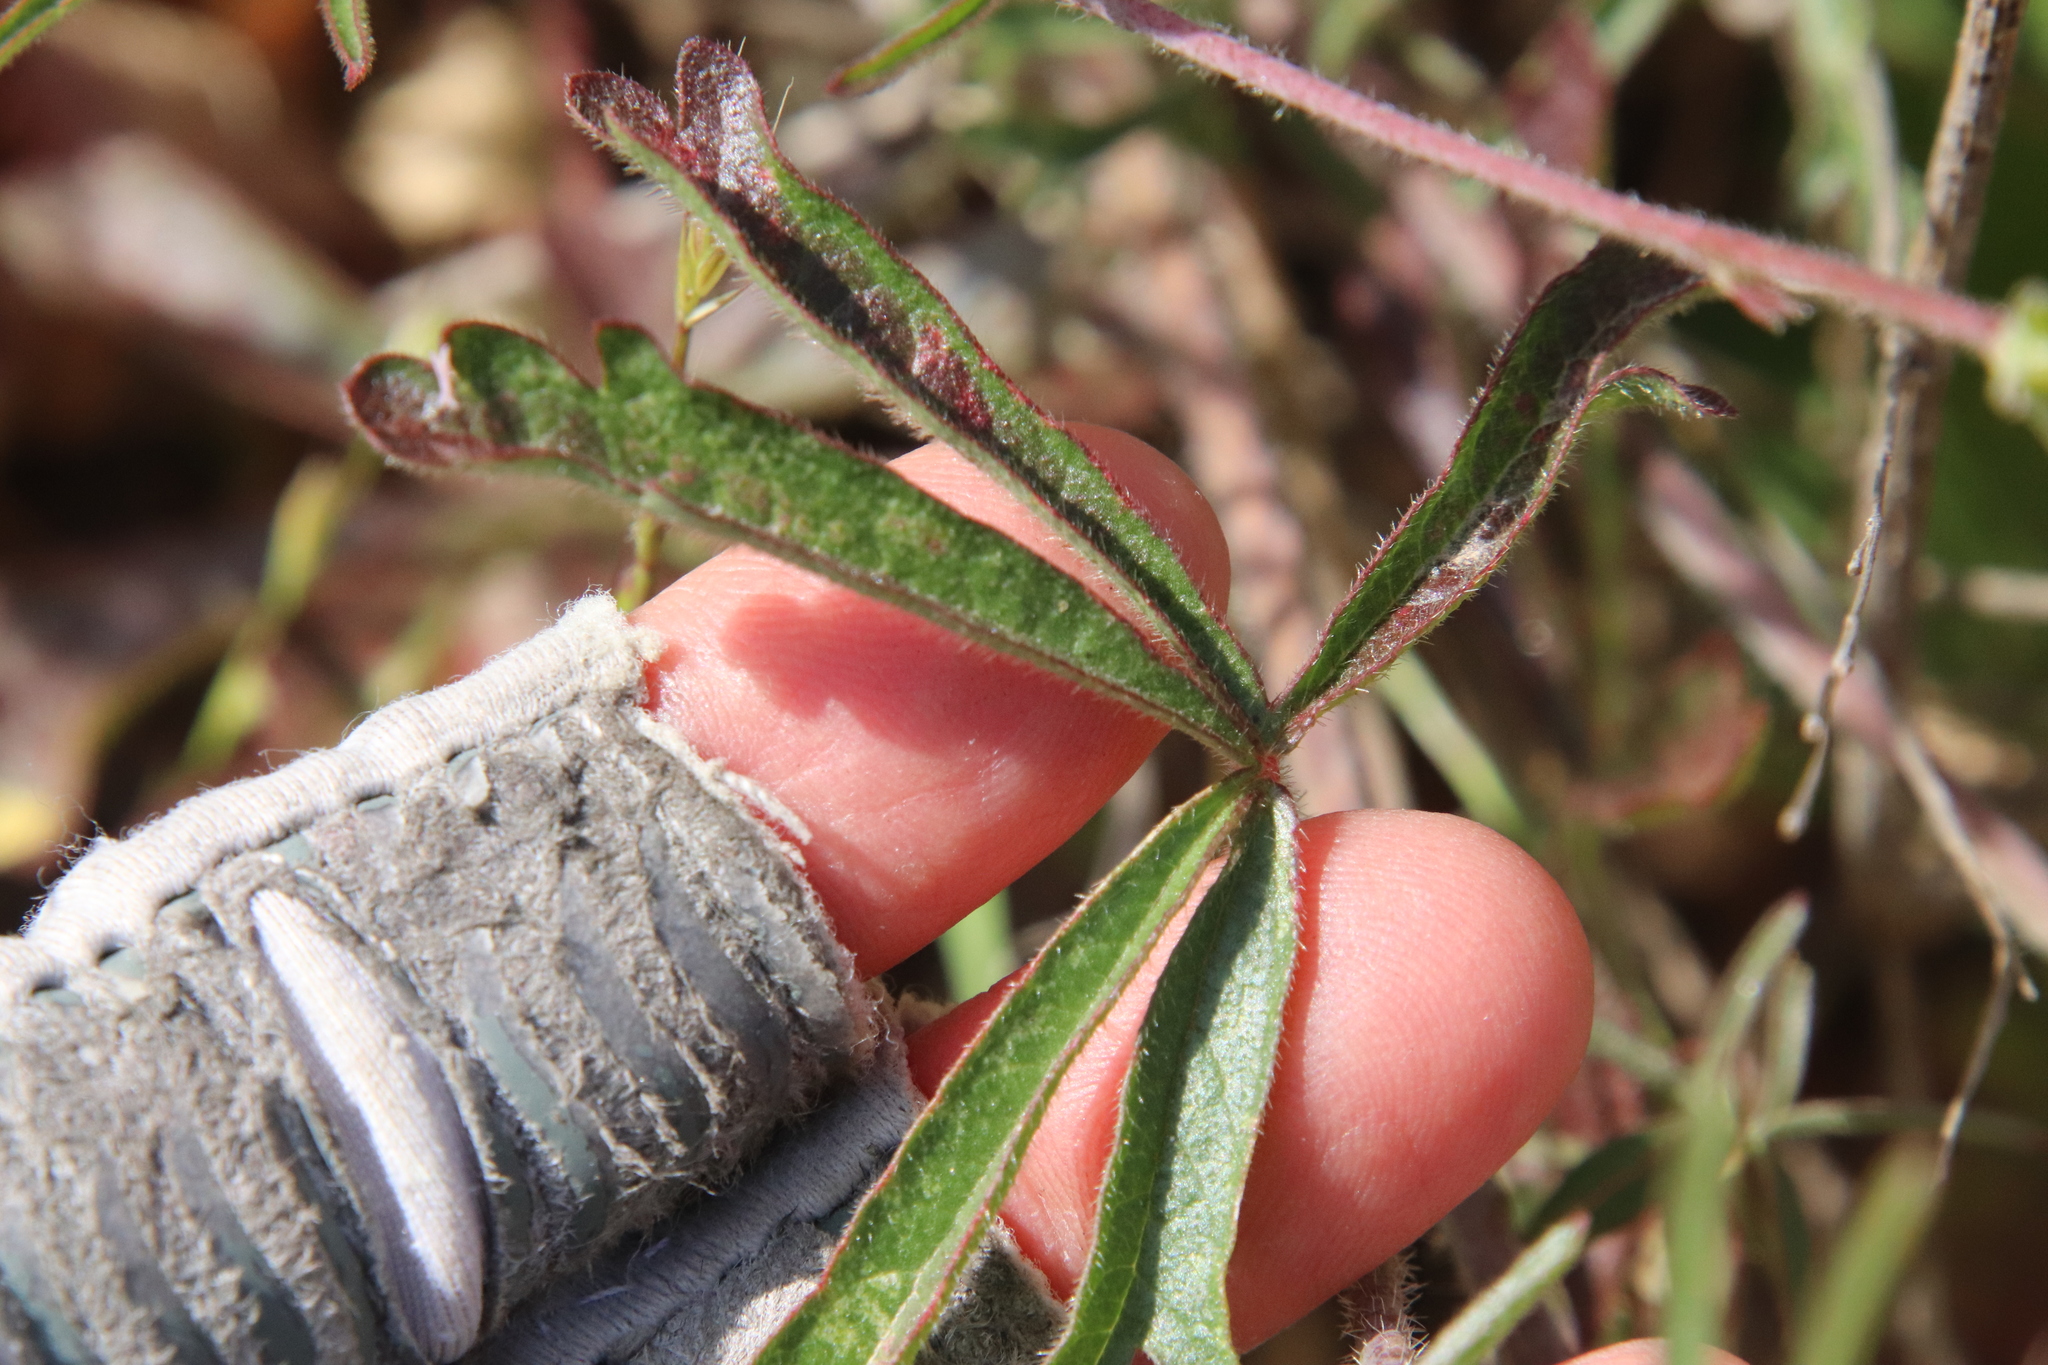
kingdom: Plantae
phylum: Tracheophyta
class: Magnoliopsida
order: Malvales
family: Malvaceae
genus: Sidalcea
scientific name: Sidalcea sparsifolia
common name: Southern checkerbloom
